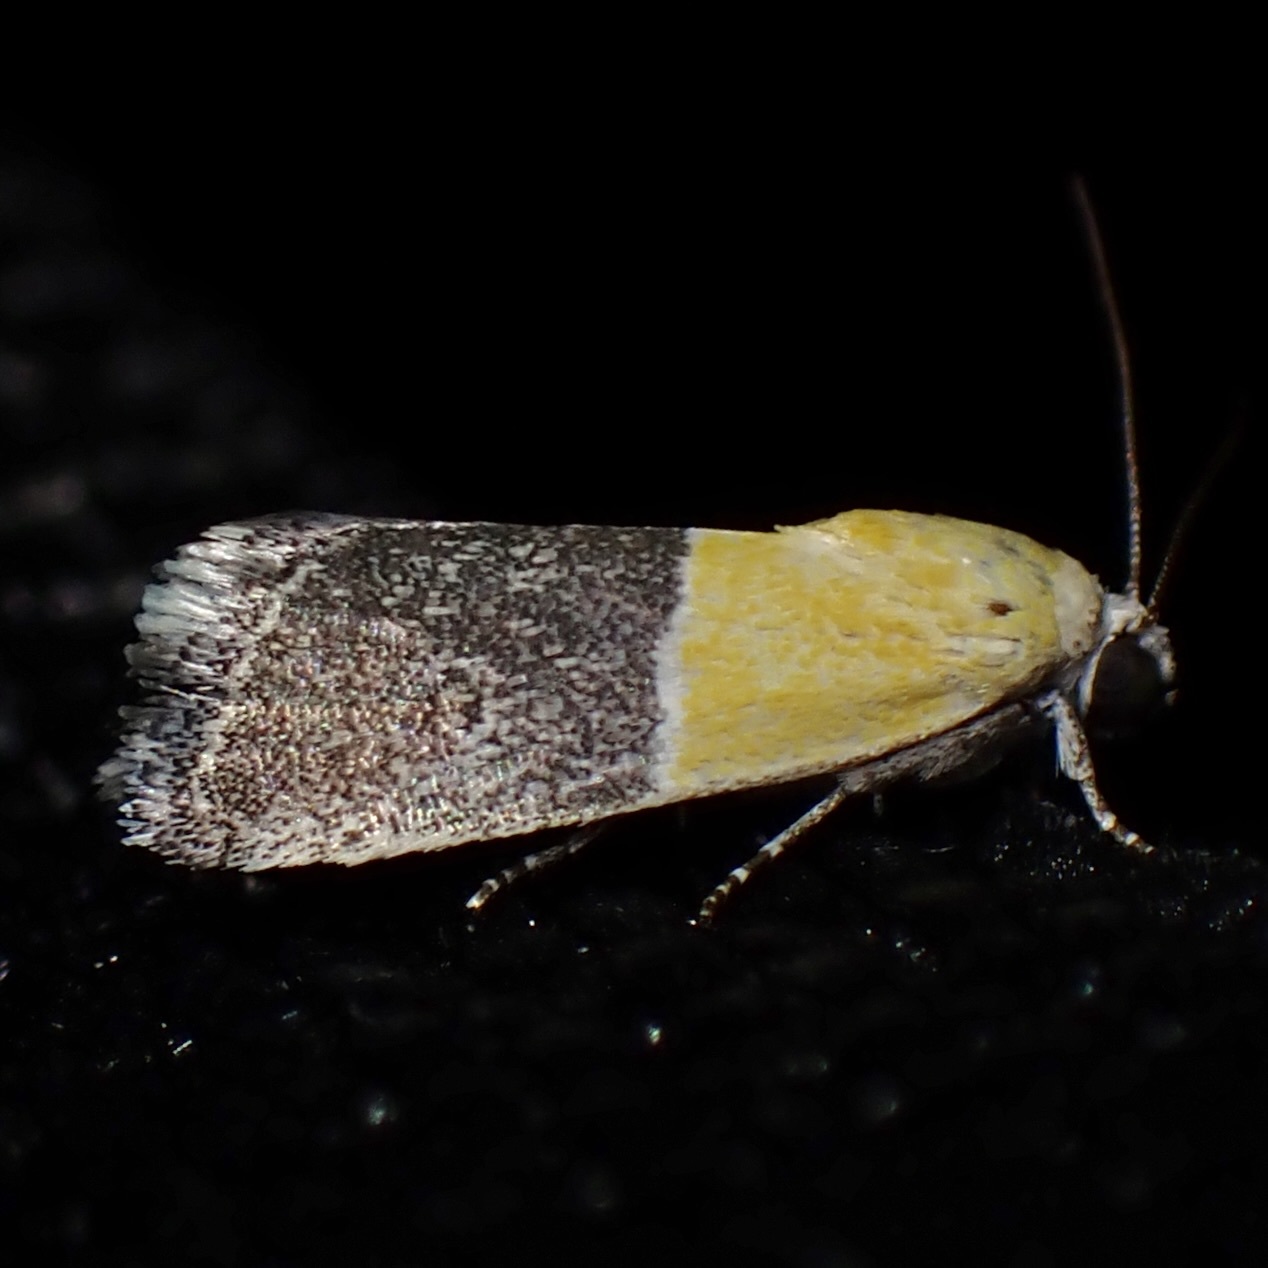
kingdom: Animalia
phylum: Arthropoda
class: Insecta
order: Lepidoptera
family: Noctuidae
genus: Acontia
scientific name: Acontia clausula
